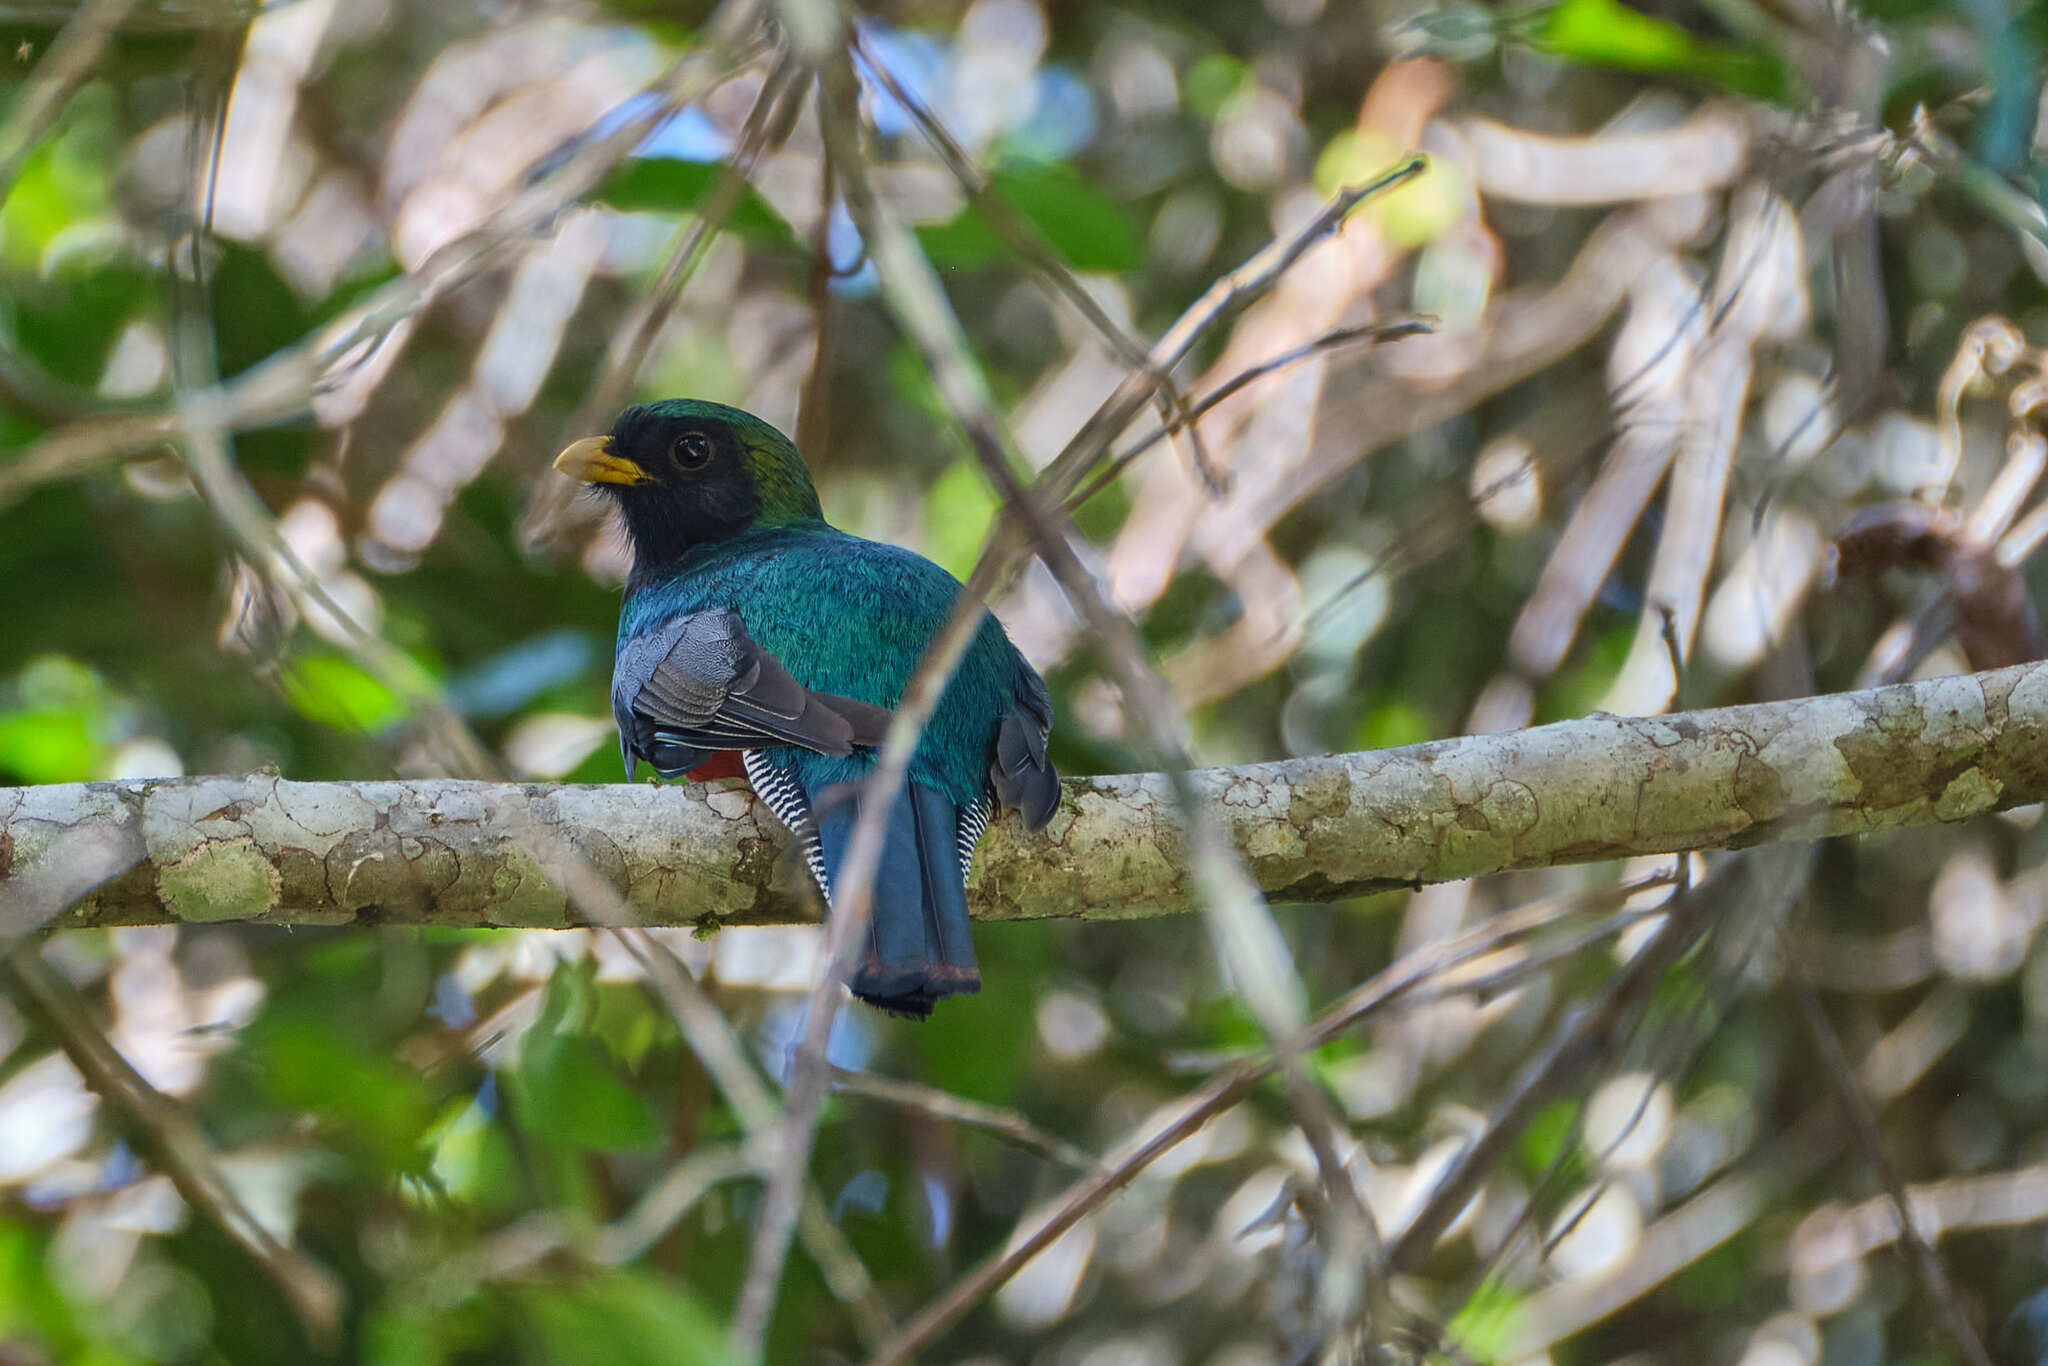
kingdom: Animalia
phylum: Chordata
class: Aves
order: Trogoniformes
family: Trogonidae
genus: Trogon
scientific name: Trogon collaris
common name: Collared trogon
